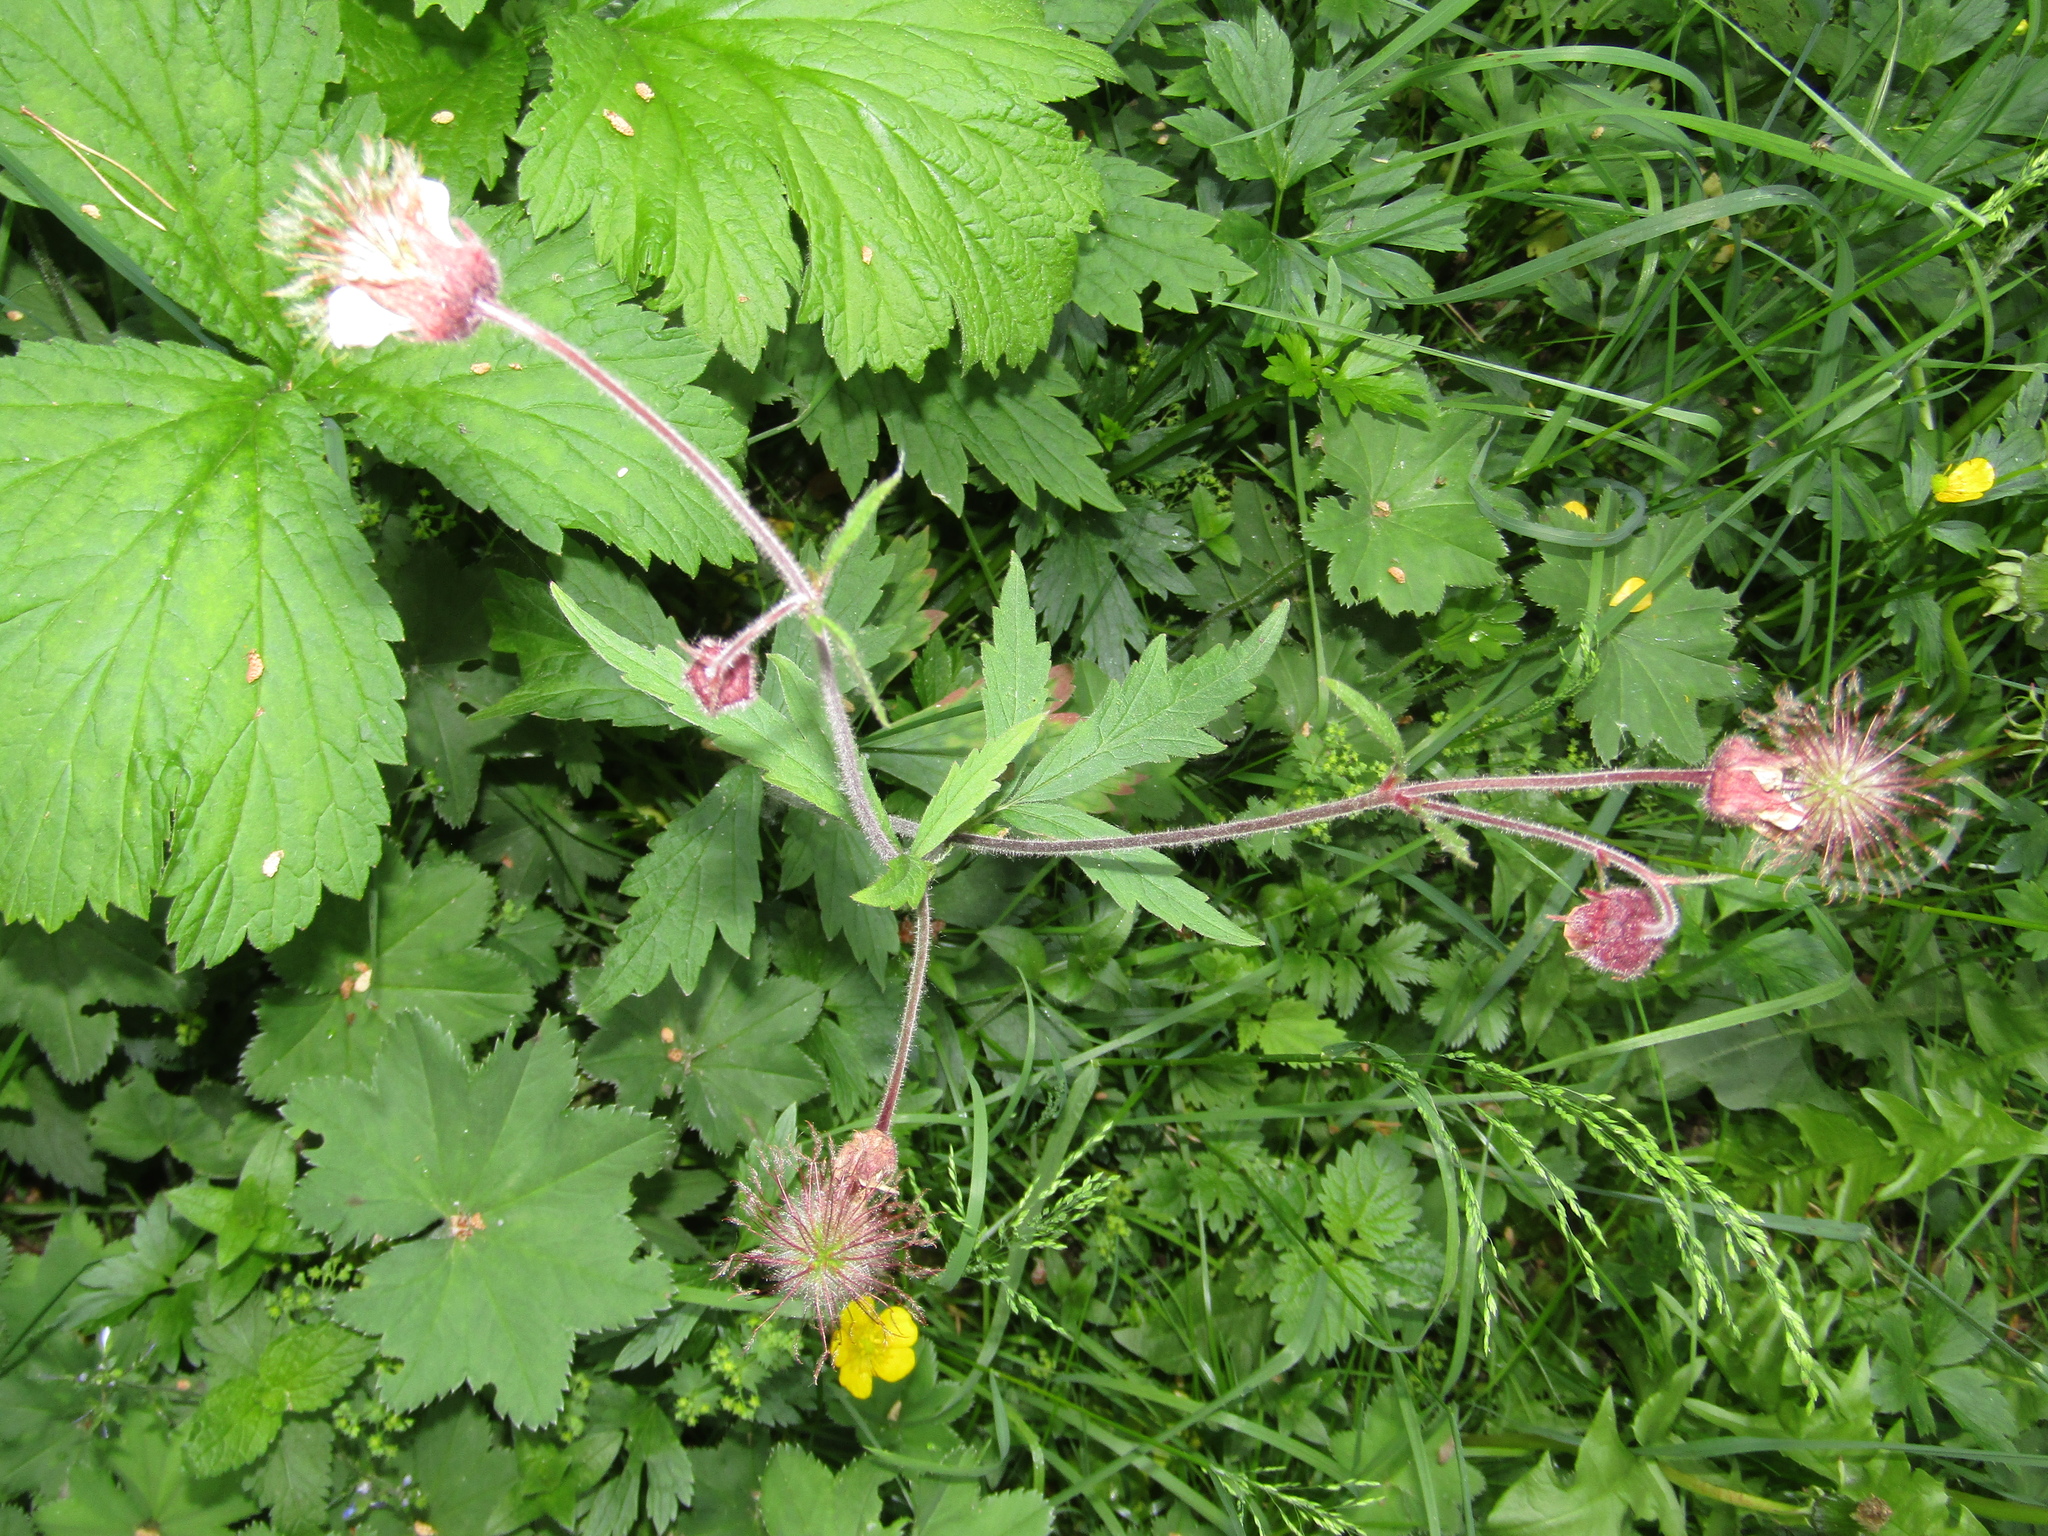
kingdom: Plantae
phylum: Tracheophyta
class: Magnoliopsida
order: Rosales
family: Rosaceae
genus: Geum
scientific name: Geum rivale
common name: Water avens
